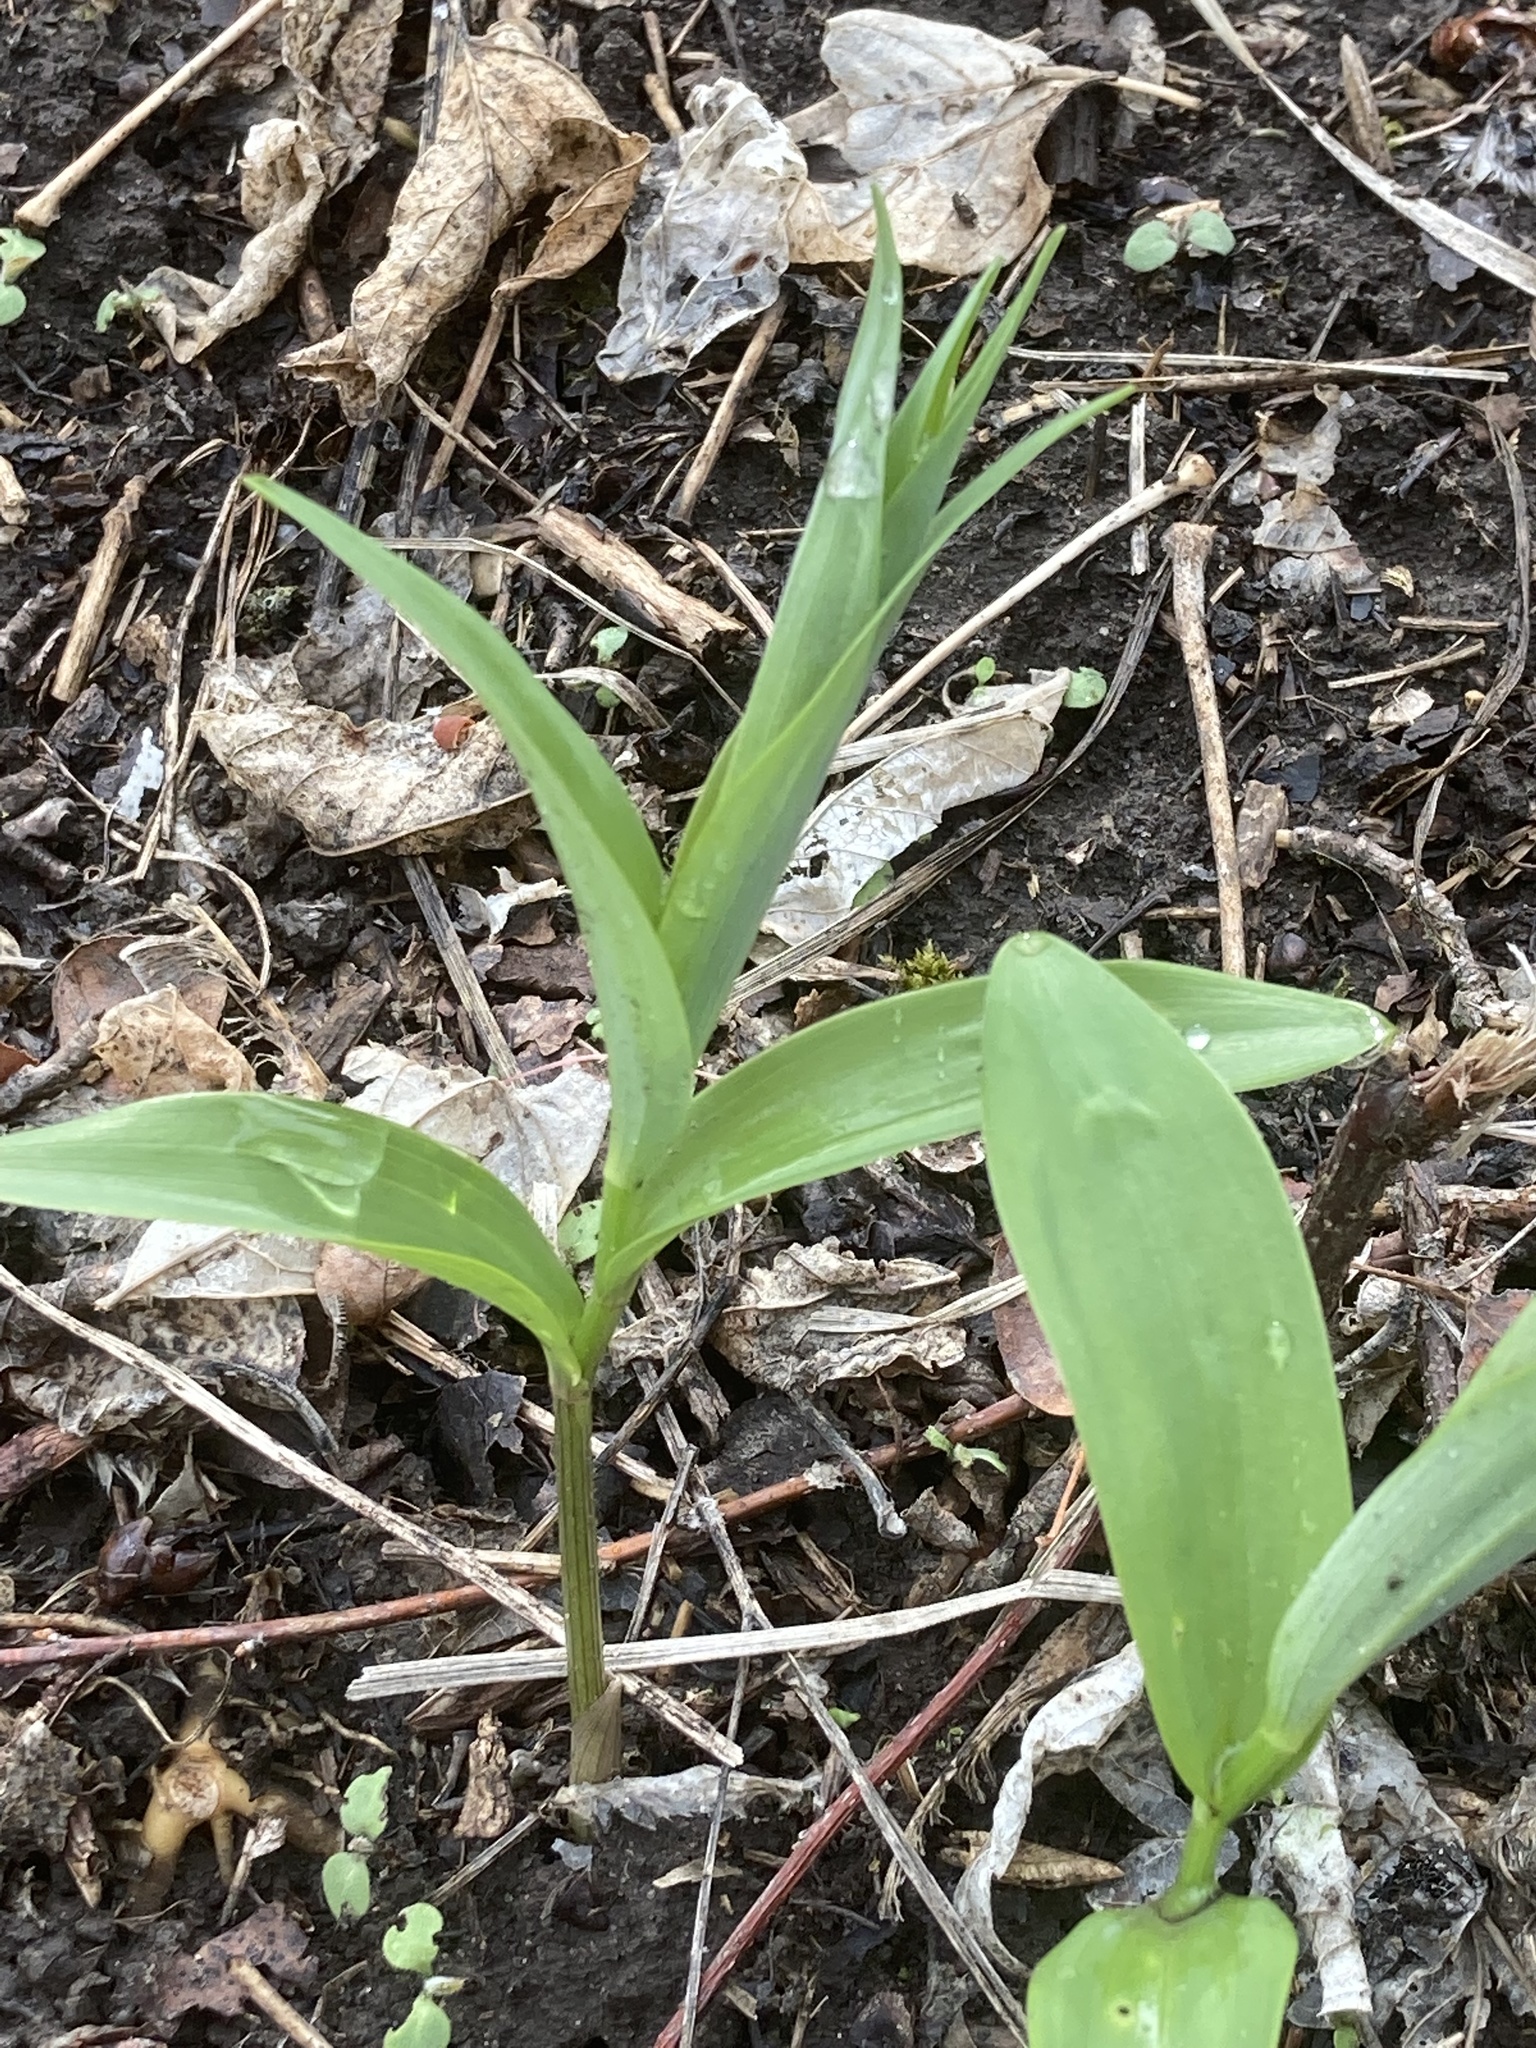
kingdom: Plantae
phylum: Tracheophyta
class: Liliopsida
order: Asparagales
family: Asparagaceae
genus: Maianthemum
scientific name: Maianthemum stellatum
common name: Little false solomon's seal
